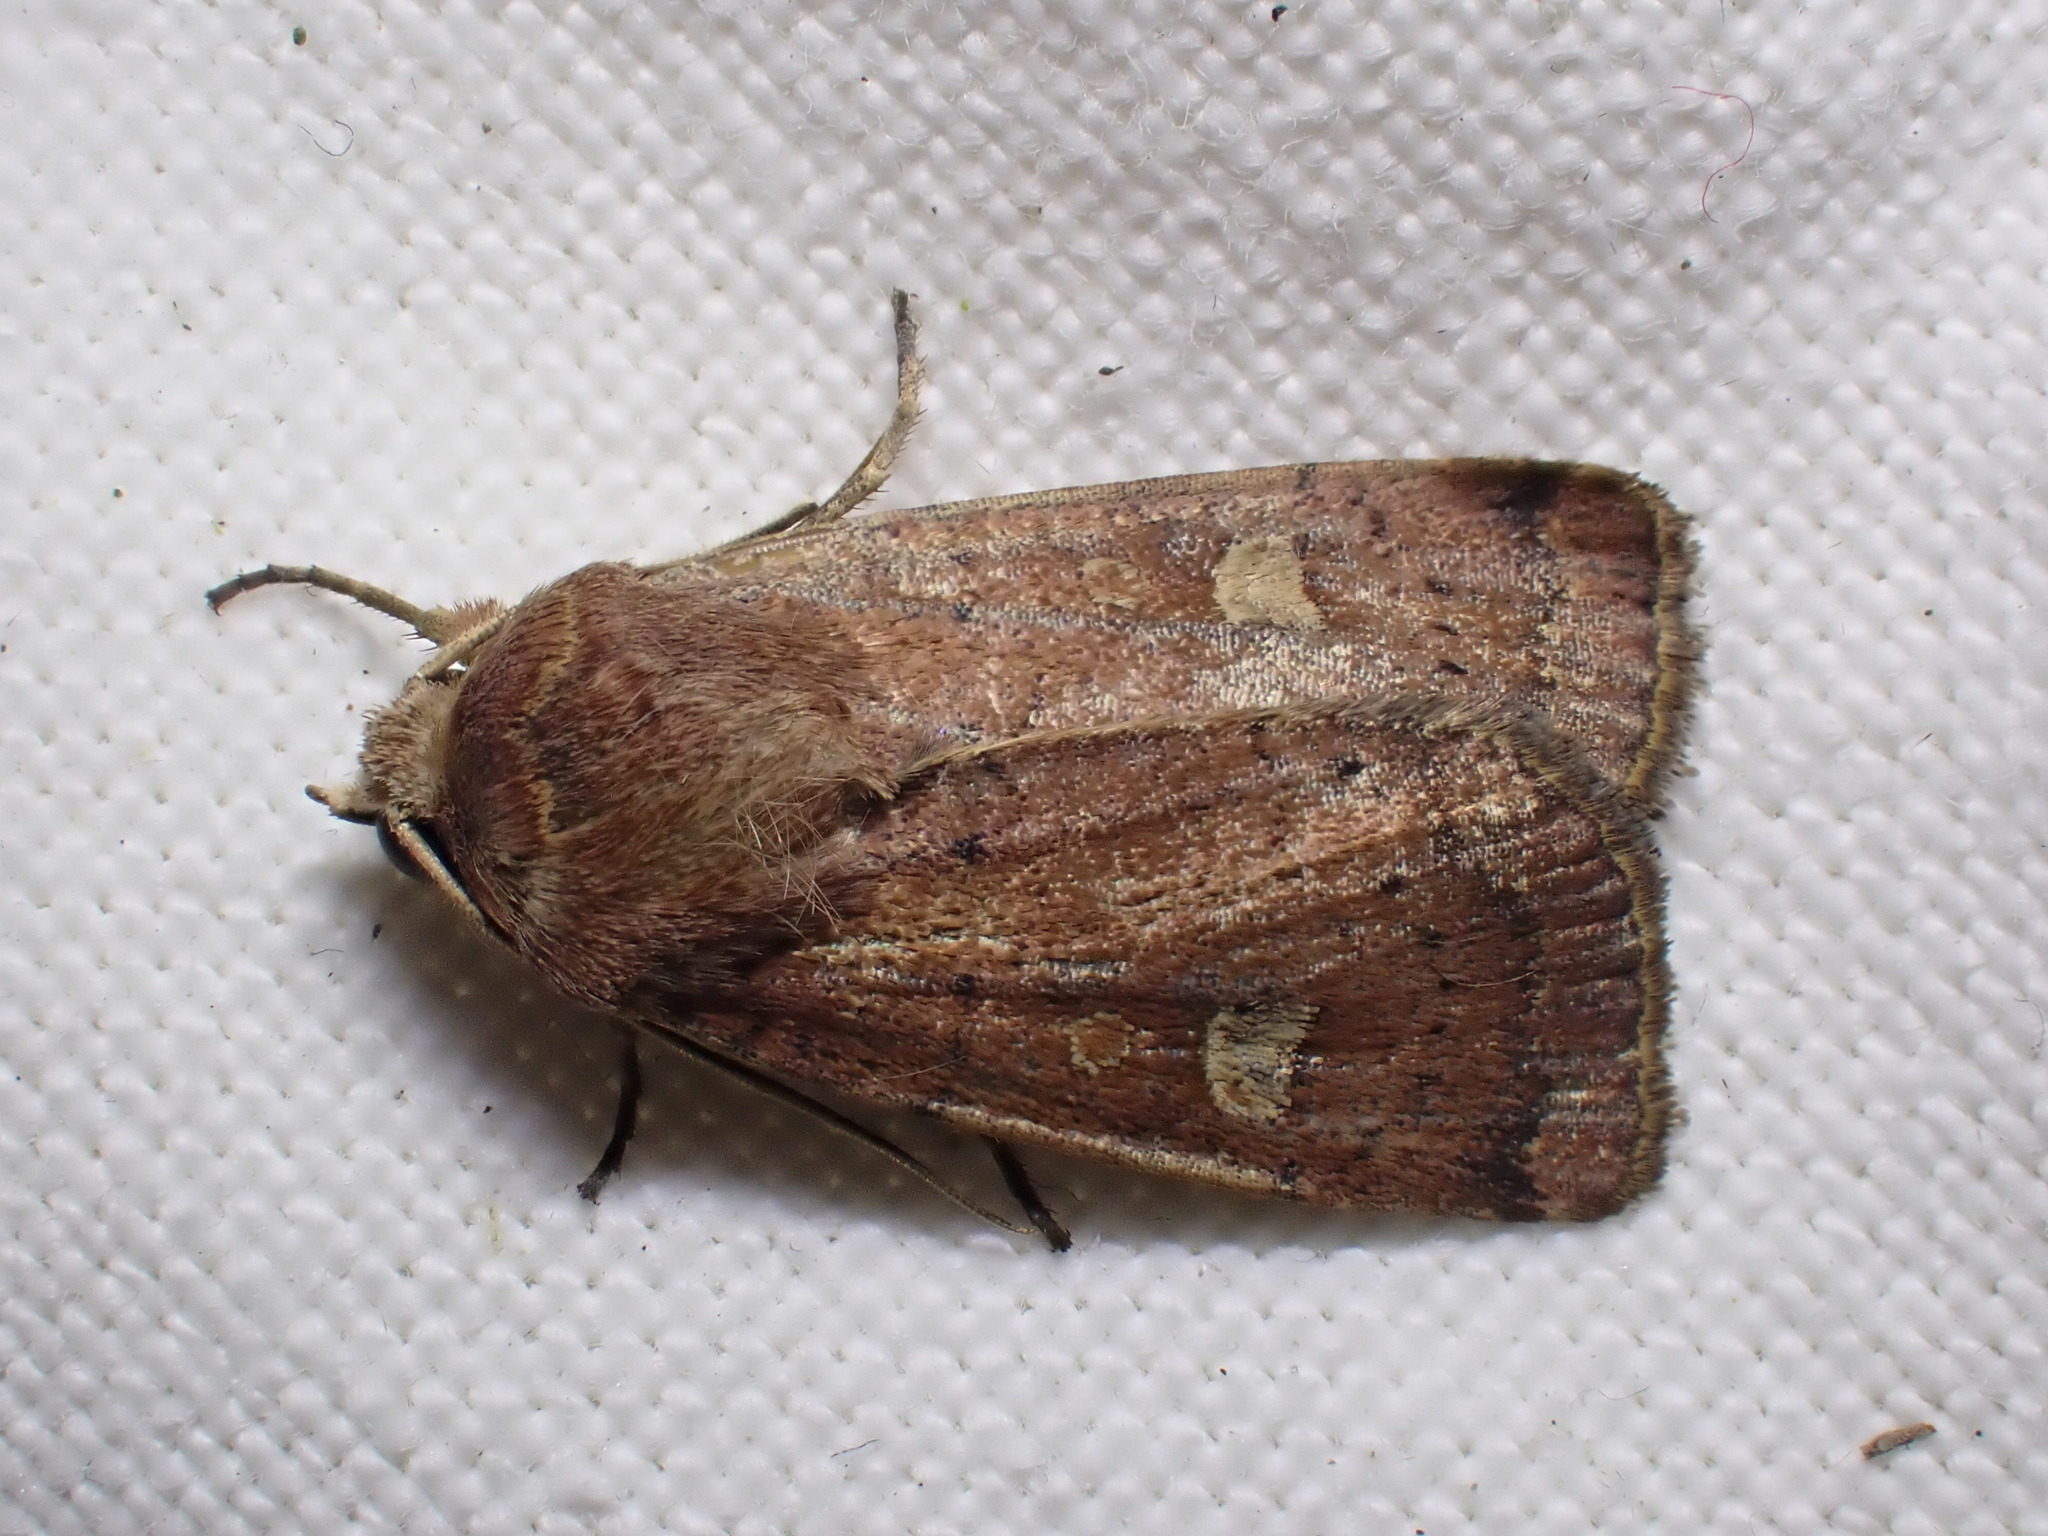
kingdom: Animalia
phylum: Arthropoda
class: Insecta
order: Lepidoptera
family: Noctuidae
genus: Xestia
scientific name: Xestia xanthographa
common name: Square-spot rustic
